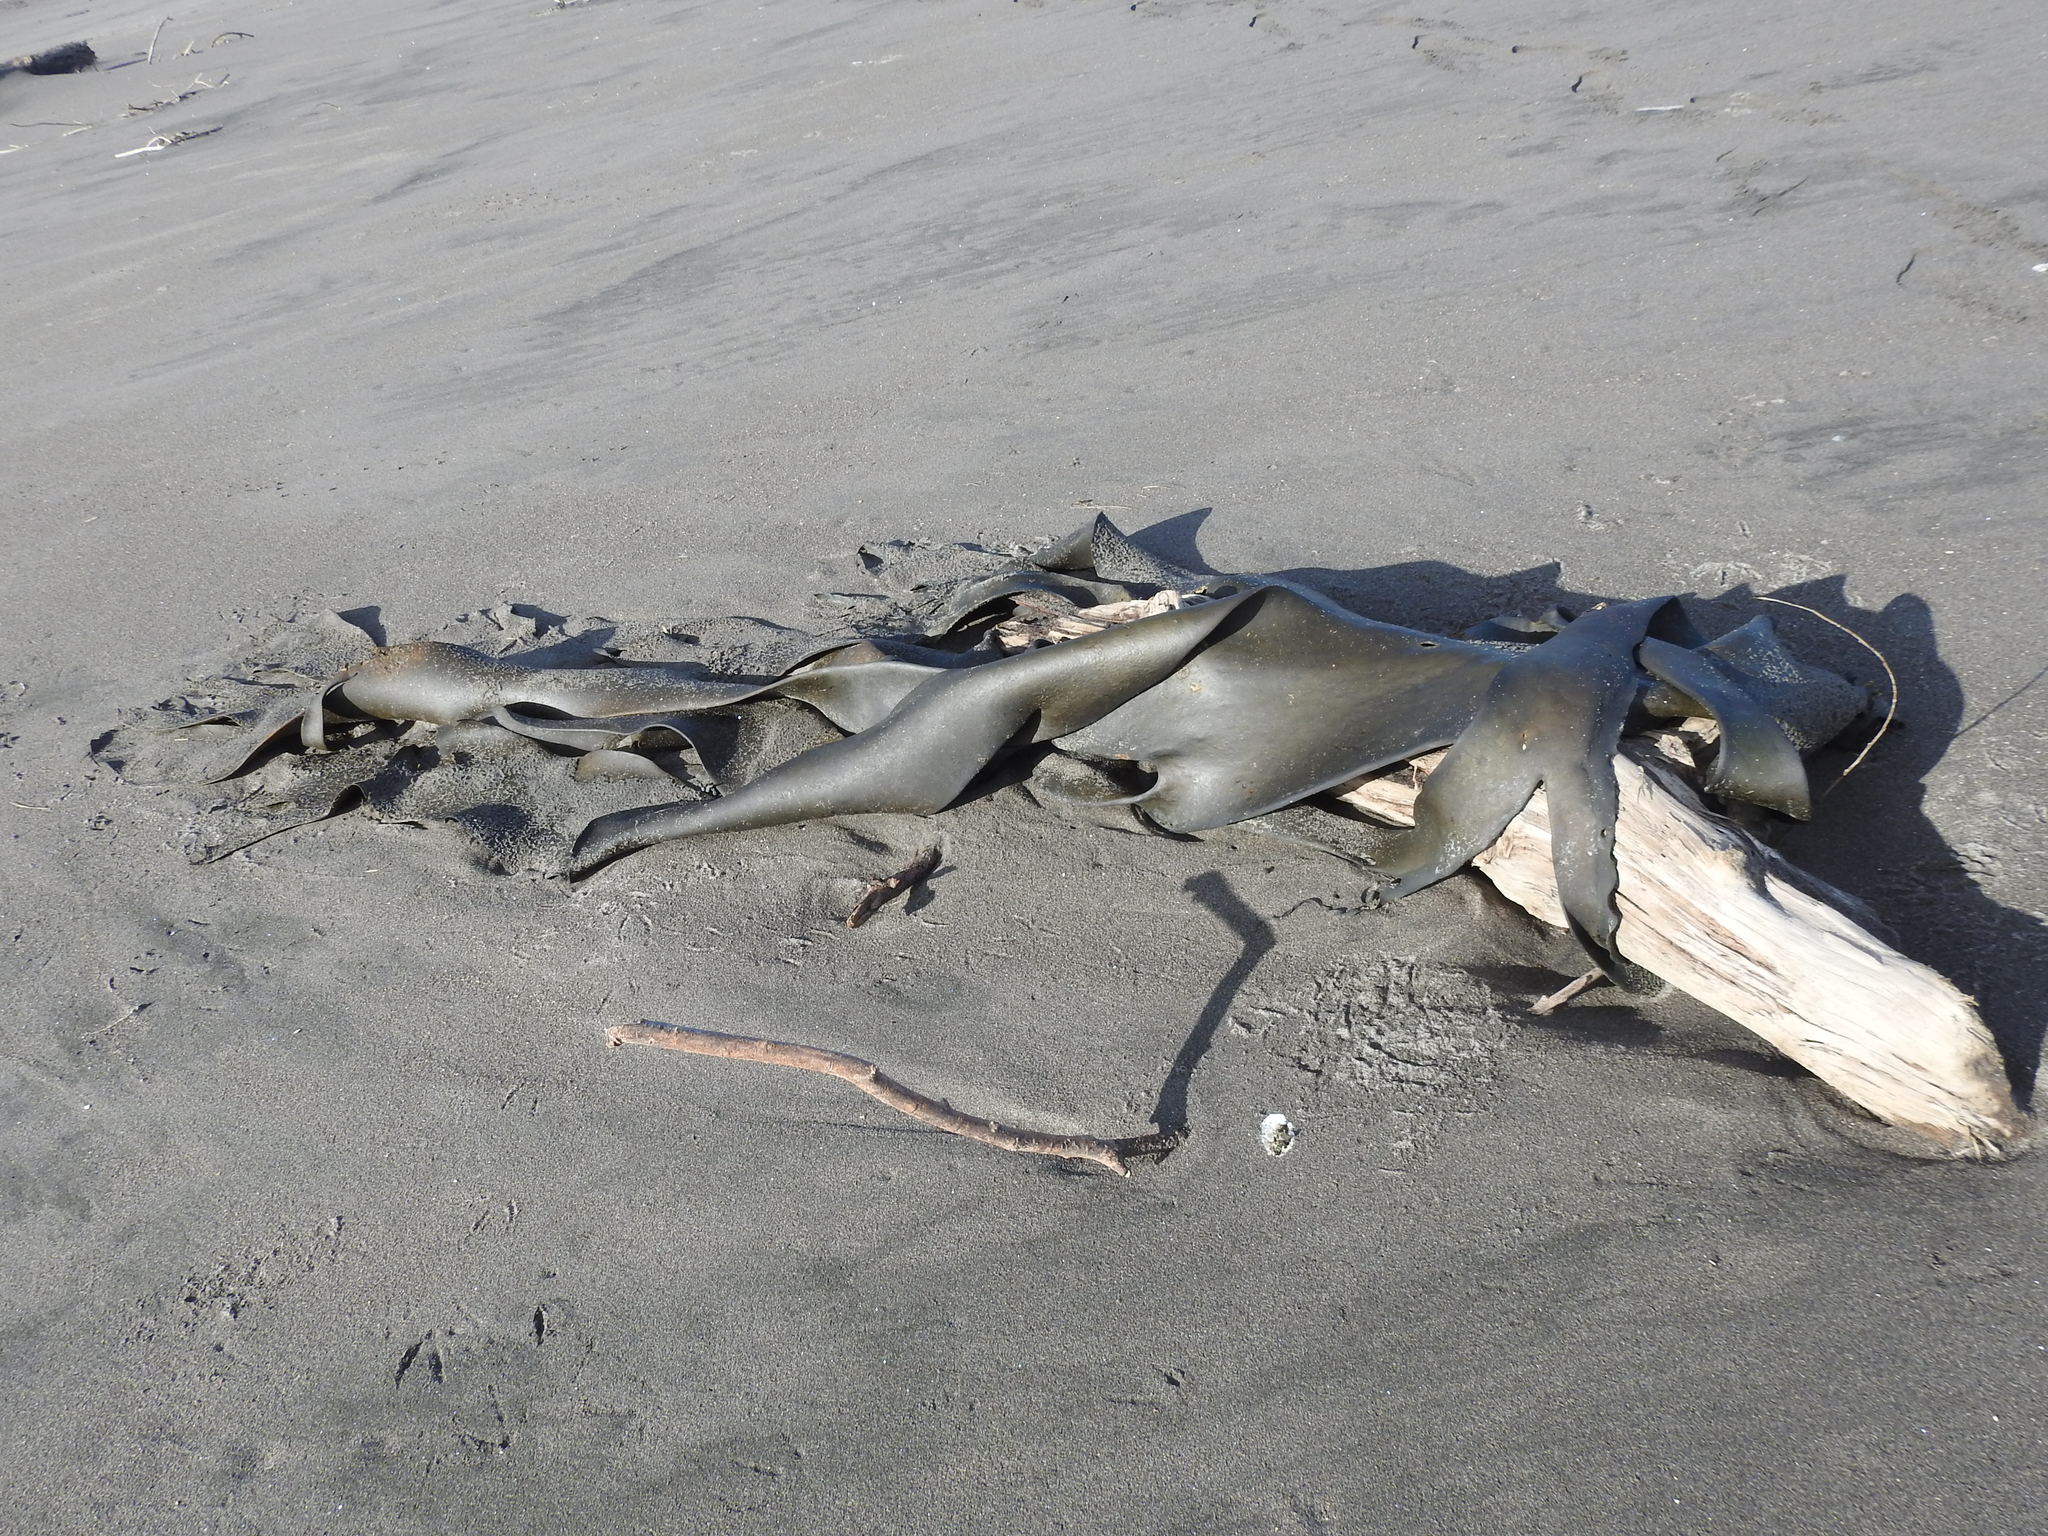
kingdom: Chromista
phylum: Ochrophyta
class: Phaeophyceae
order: Fucales
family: Durvillaeaceae
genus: Durvillaea
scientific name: Durvillaea antarctica
